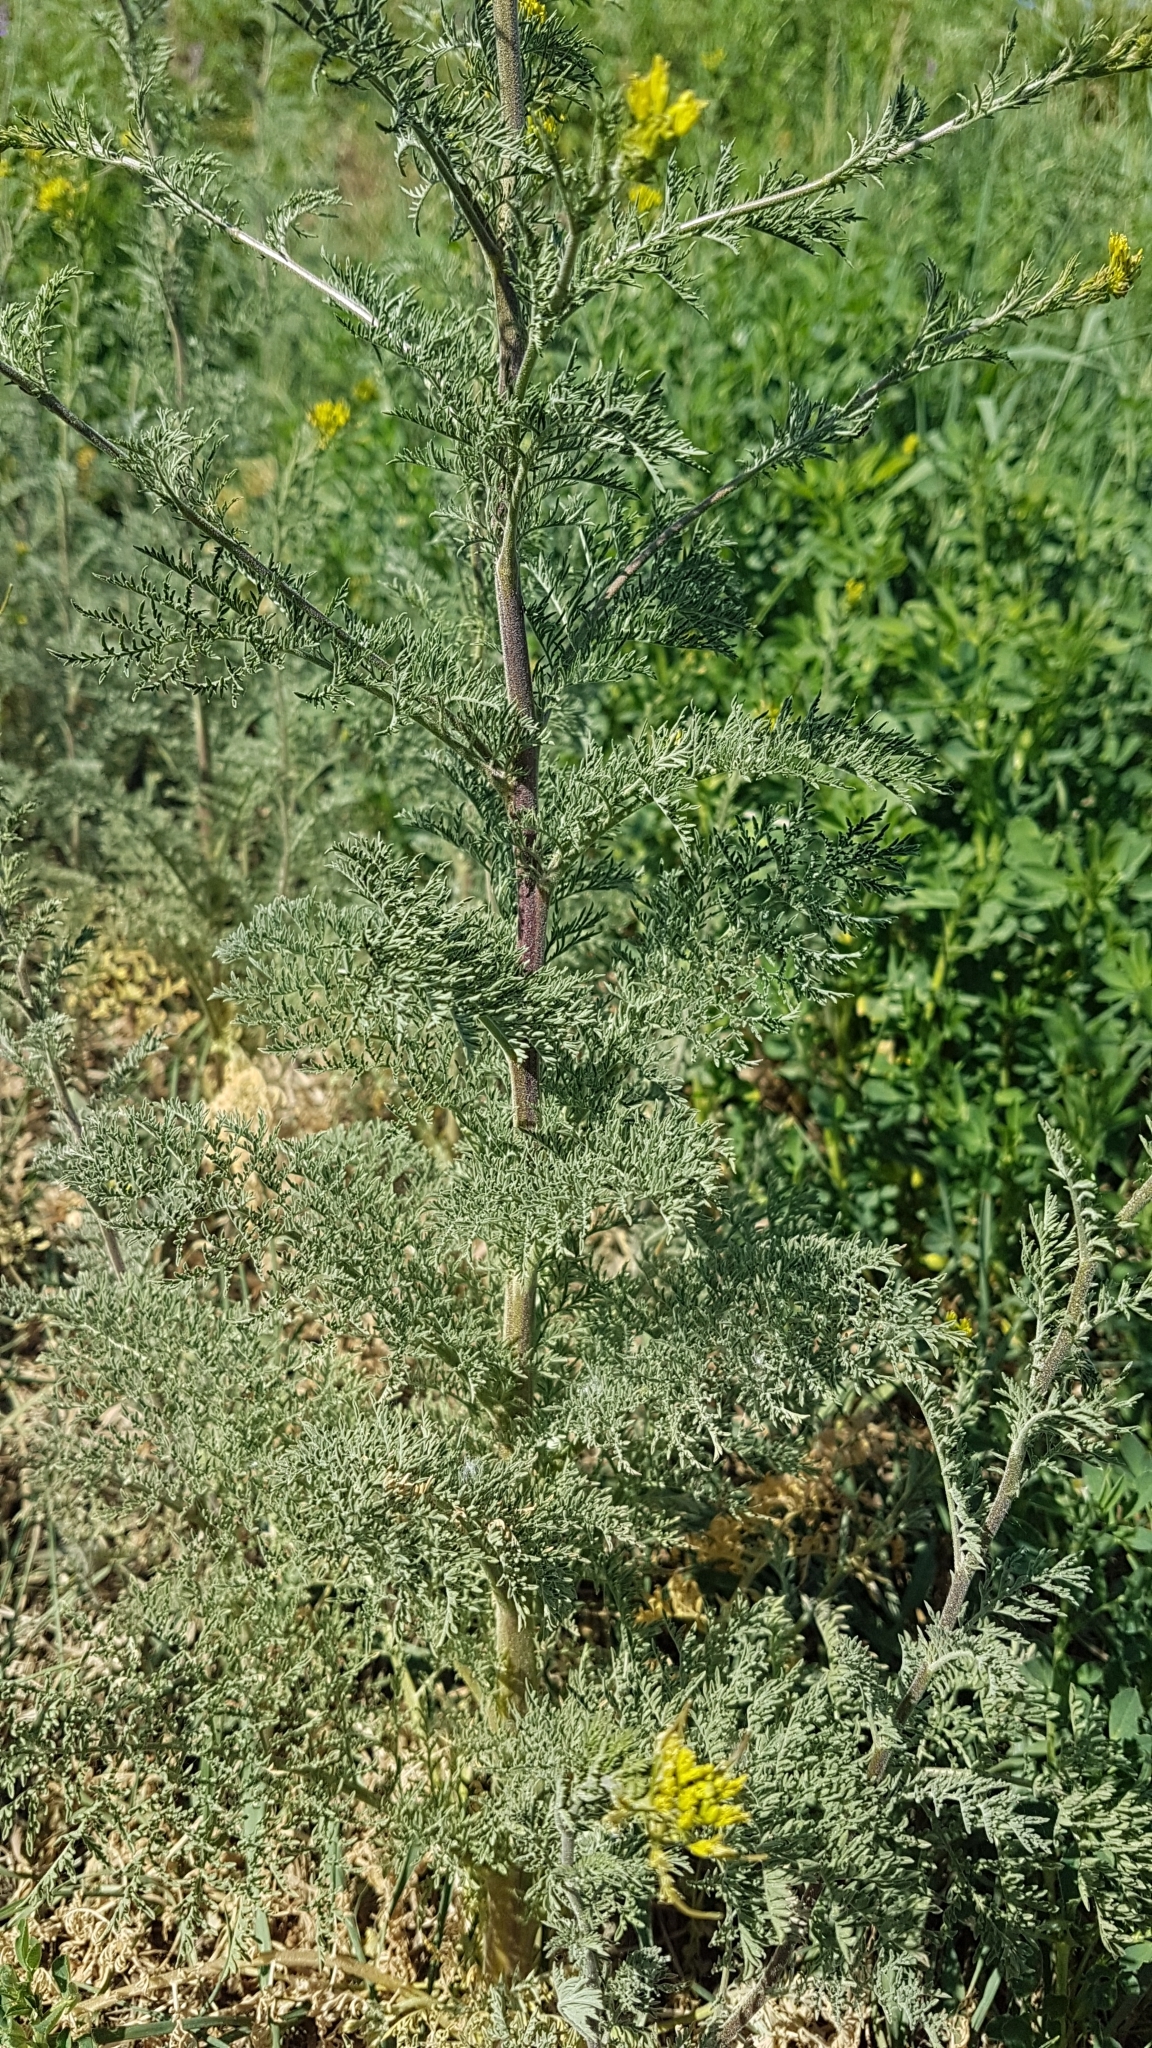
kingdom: Plantae
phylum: Tracheophyta
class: Magnoliopsida
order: Brassicales
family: Brassicaceae
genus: Descurainia
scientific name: Descurainia sophia
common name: Flixweed
